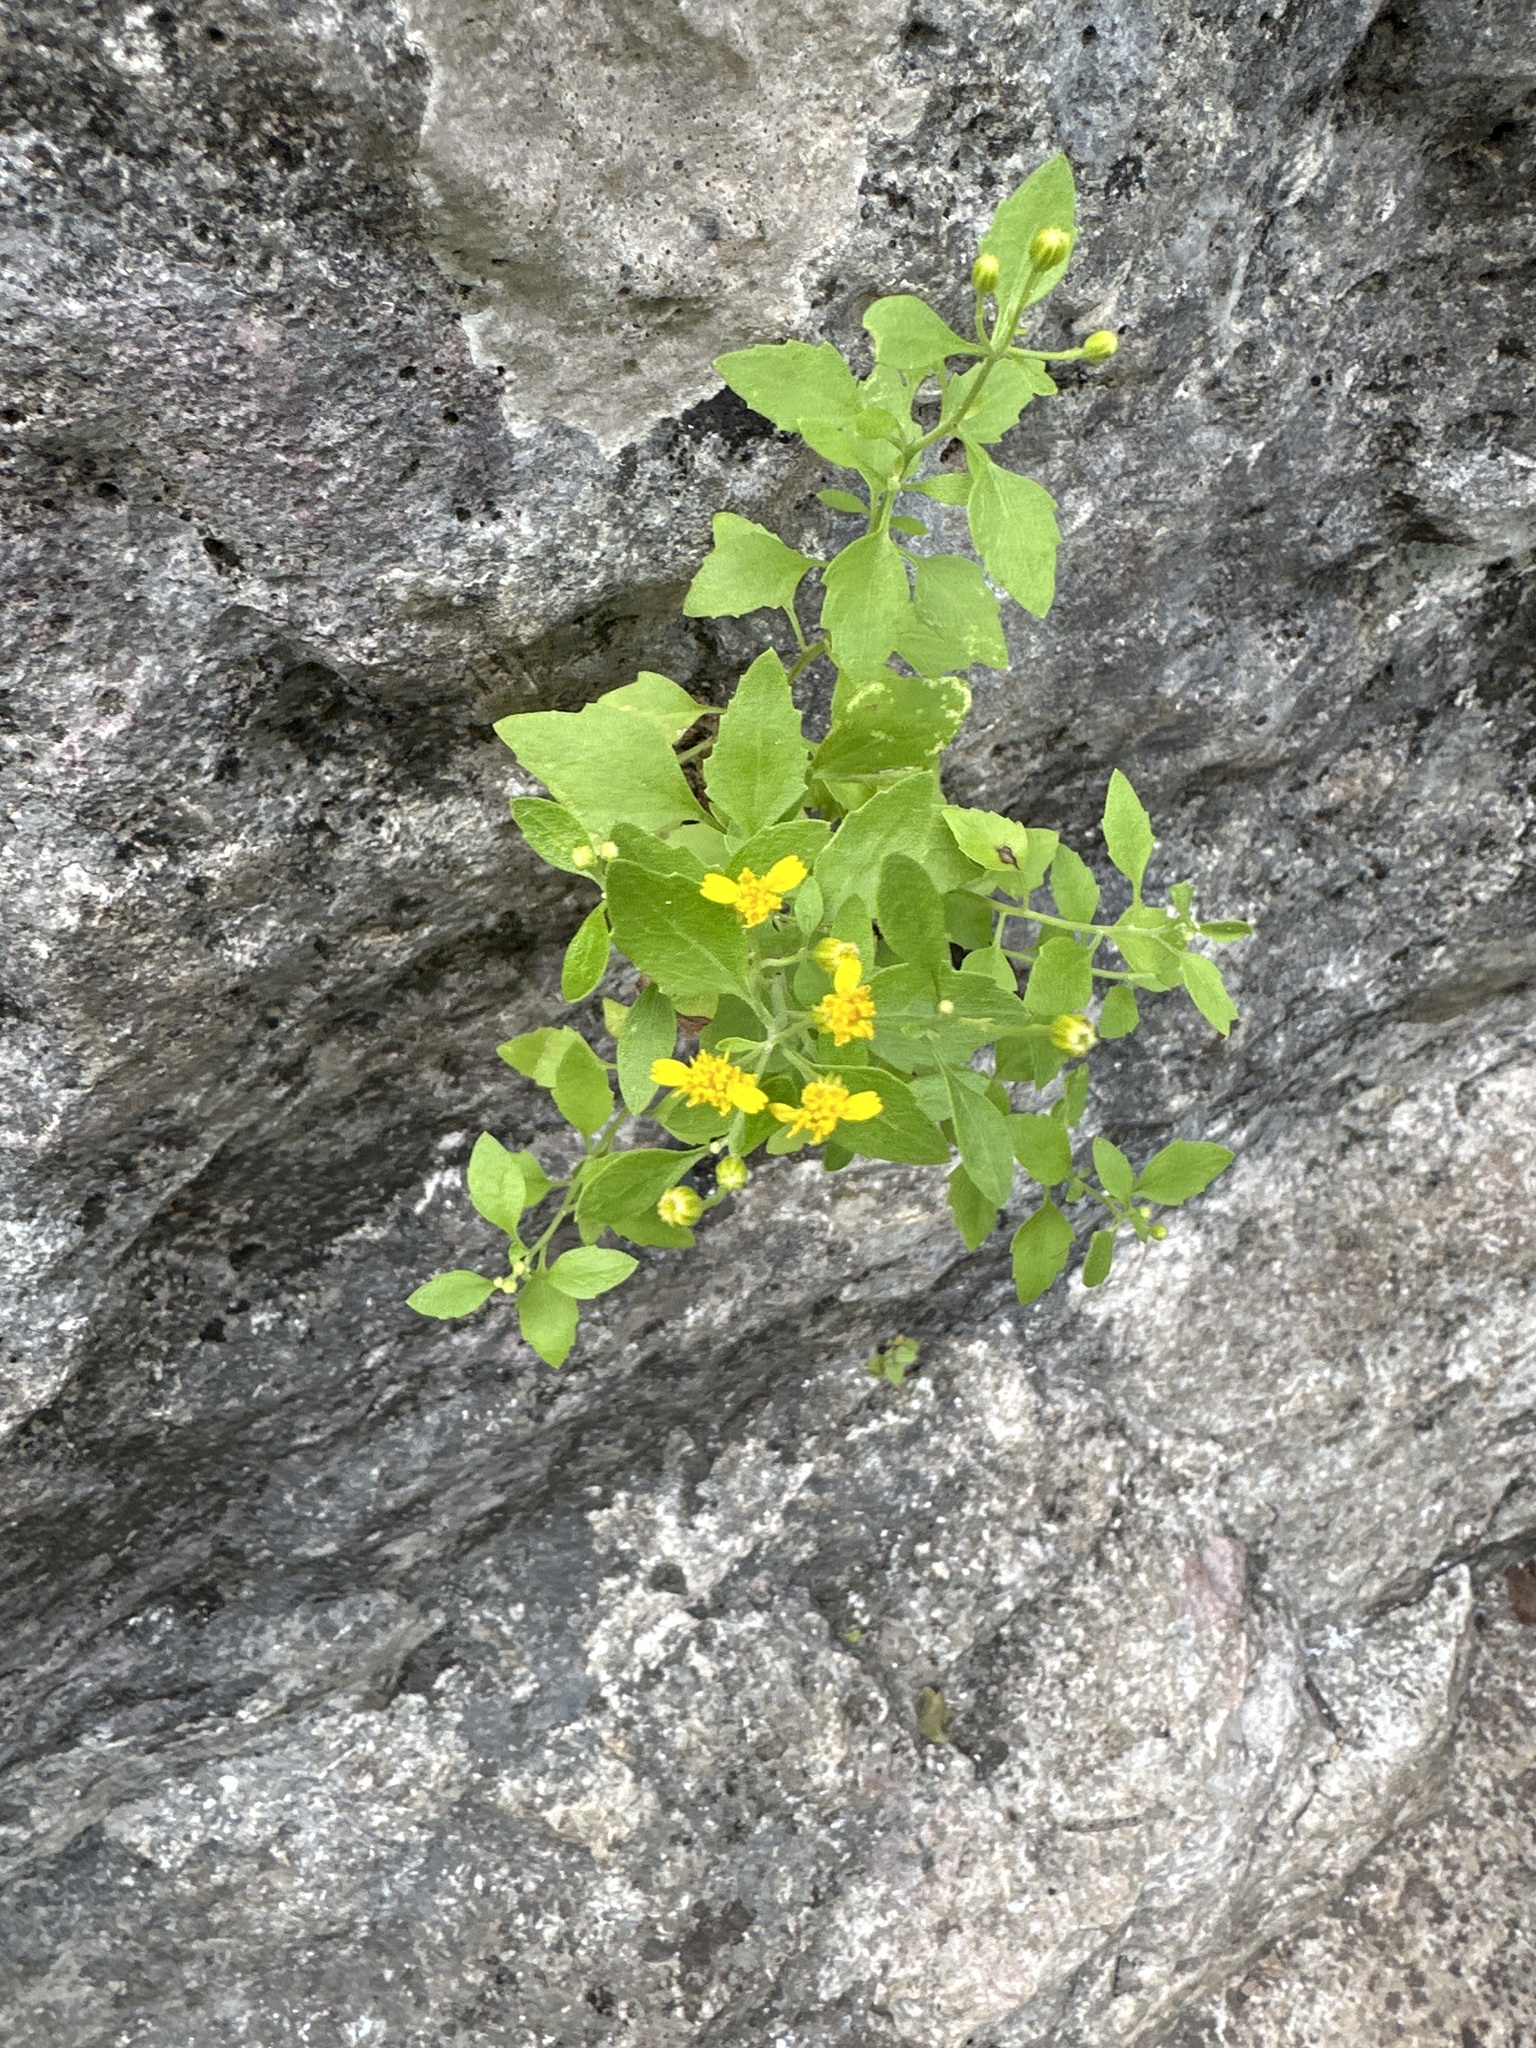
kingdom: Plantae
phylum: Tracheophyta
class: Magnoliopsida
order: Asterales
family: Asteraceae
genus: Laphamia
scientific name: Laphamia lindheimeri
